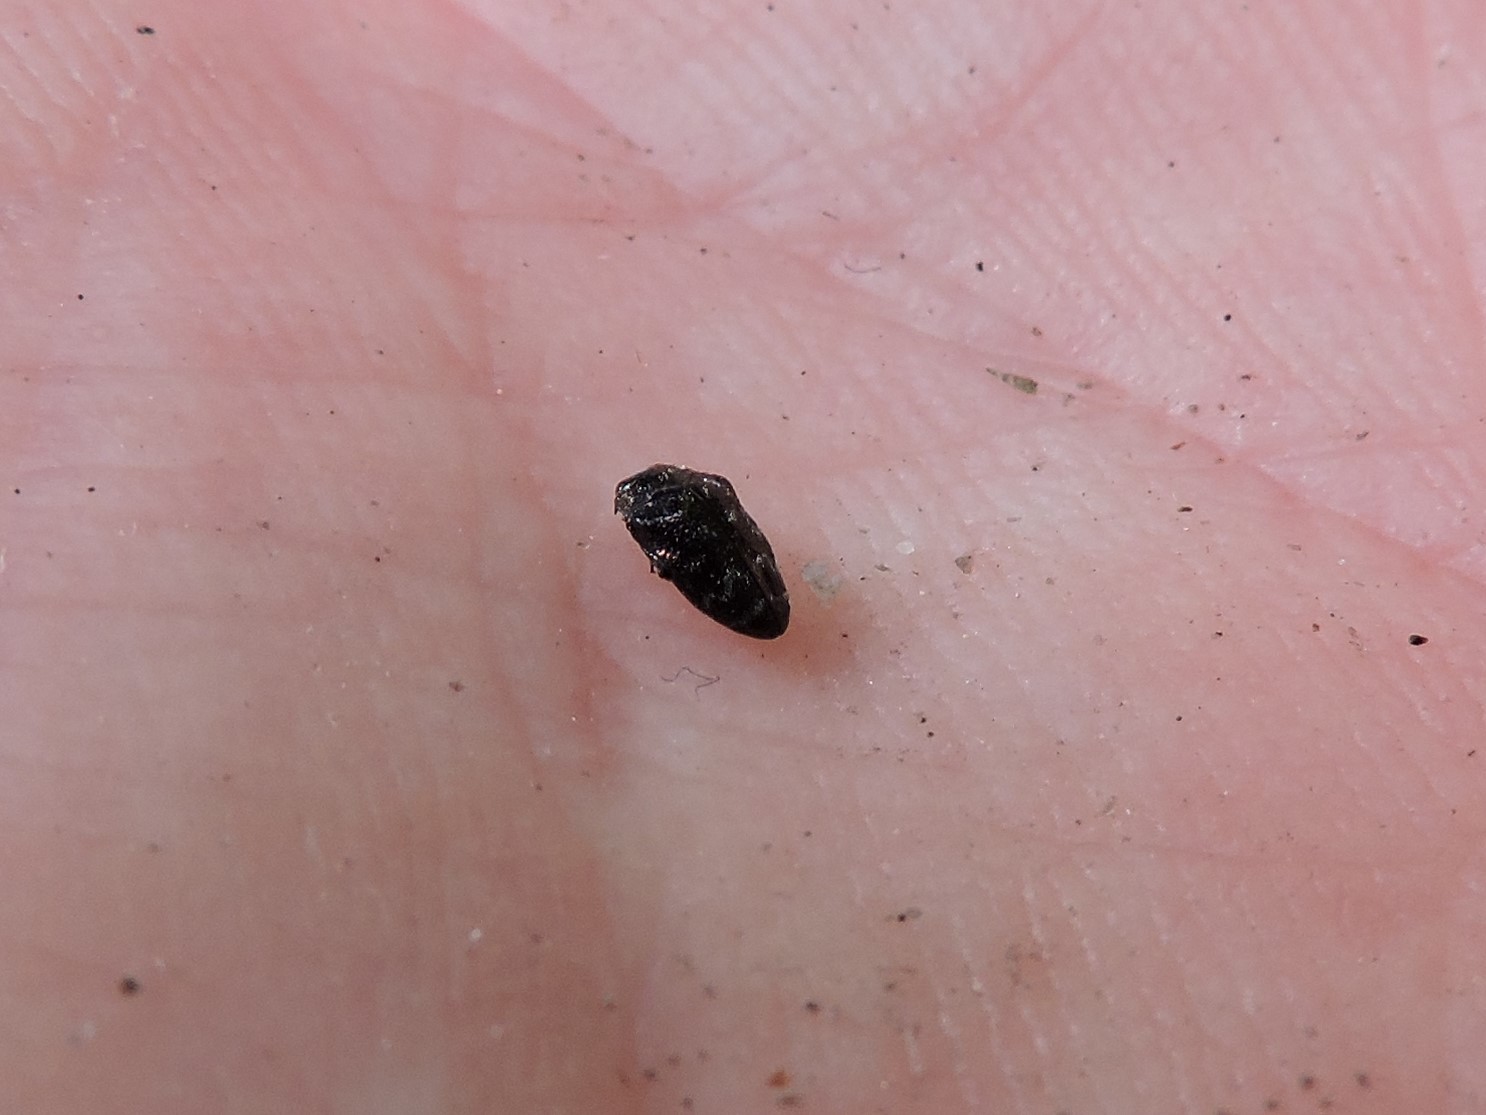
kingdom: Animalia
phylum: Arthropoda
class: Insecta
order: Coleoptera
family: Buprestidae
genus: Trachys
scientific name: Trachys minutus
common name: Metallic wood-boring beetle
